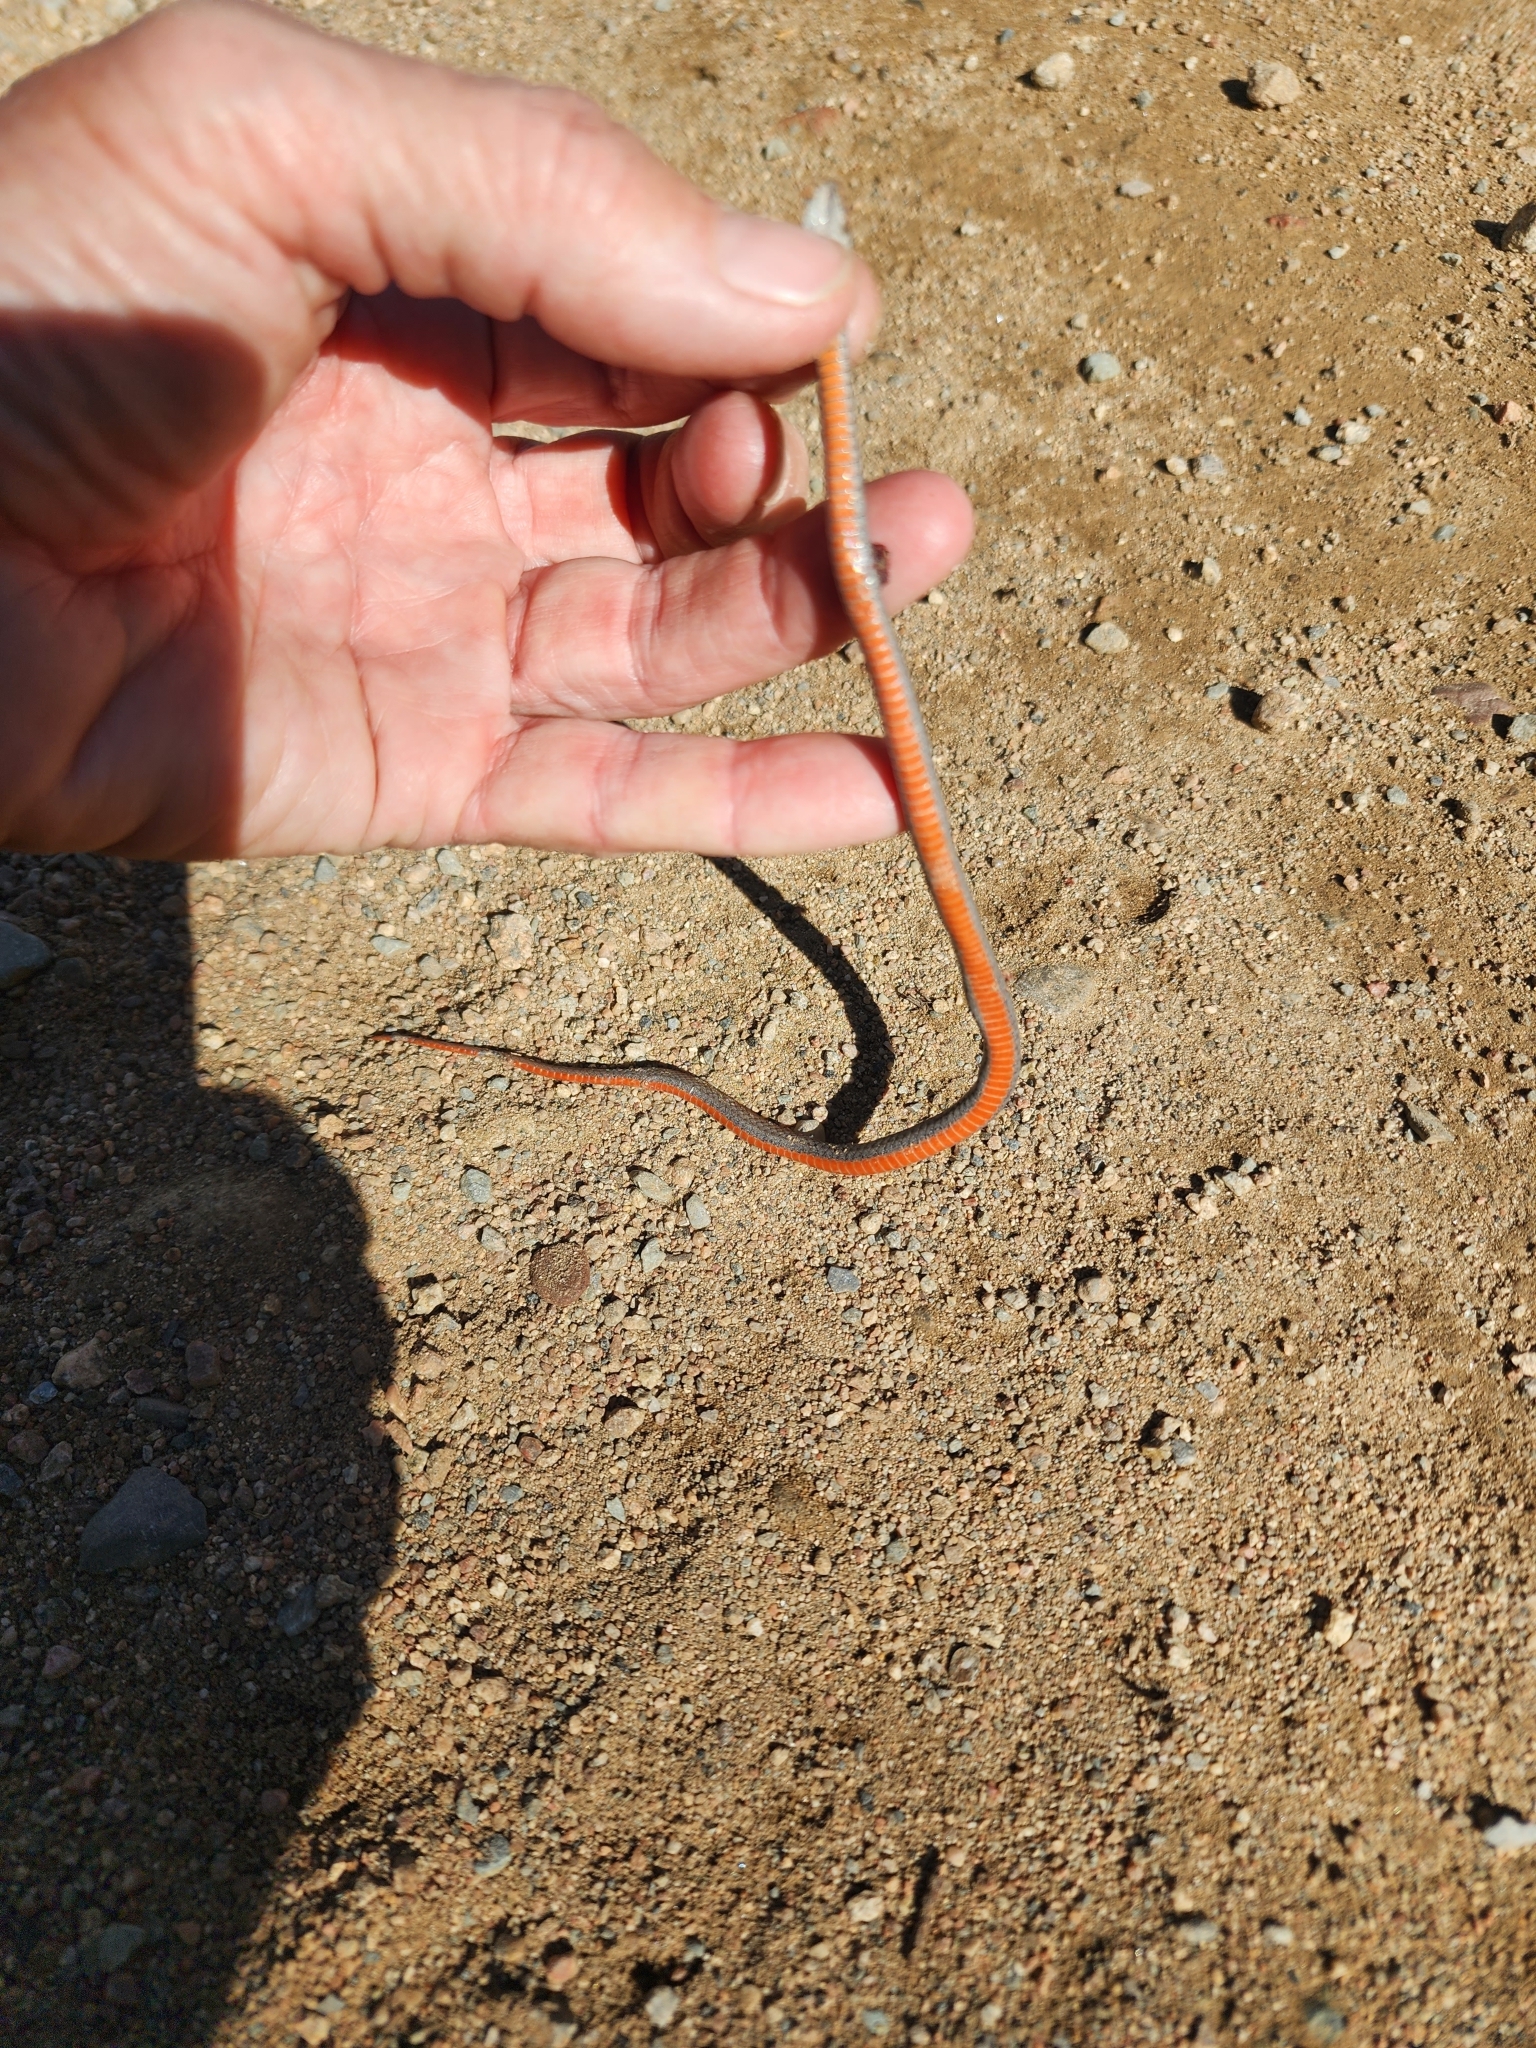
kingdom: Animalia
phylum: Chordata
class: Squamata
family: Colubridae
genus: Storeria
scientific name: Storeria occipitomaculata
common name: Redbelly snake
